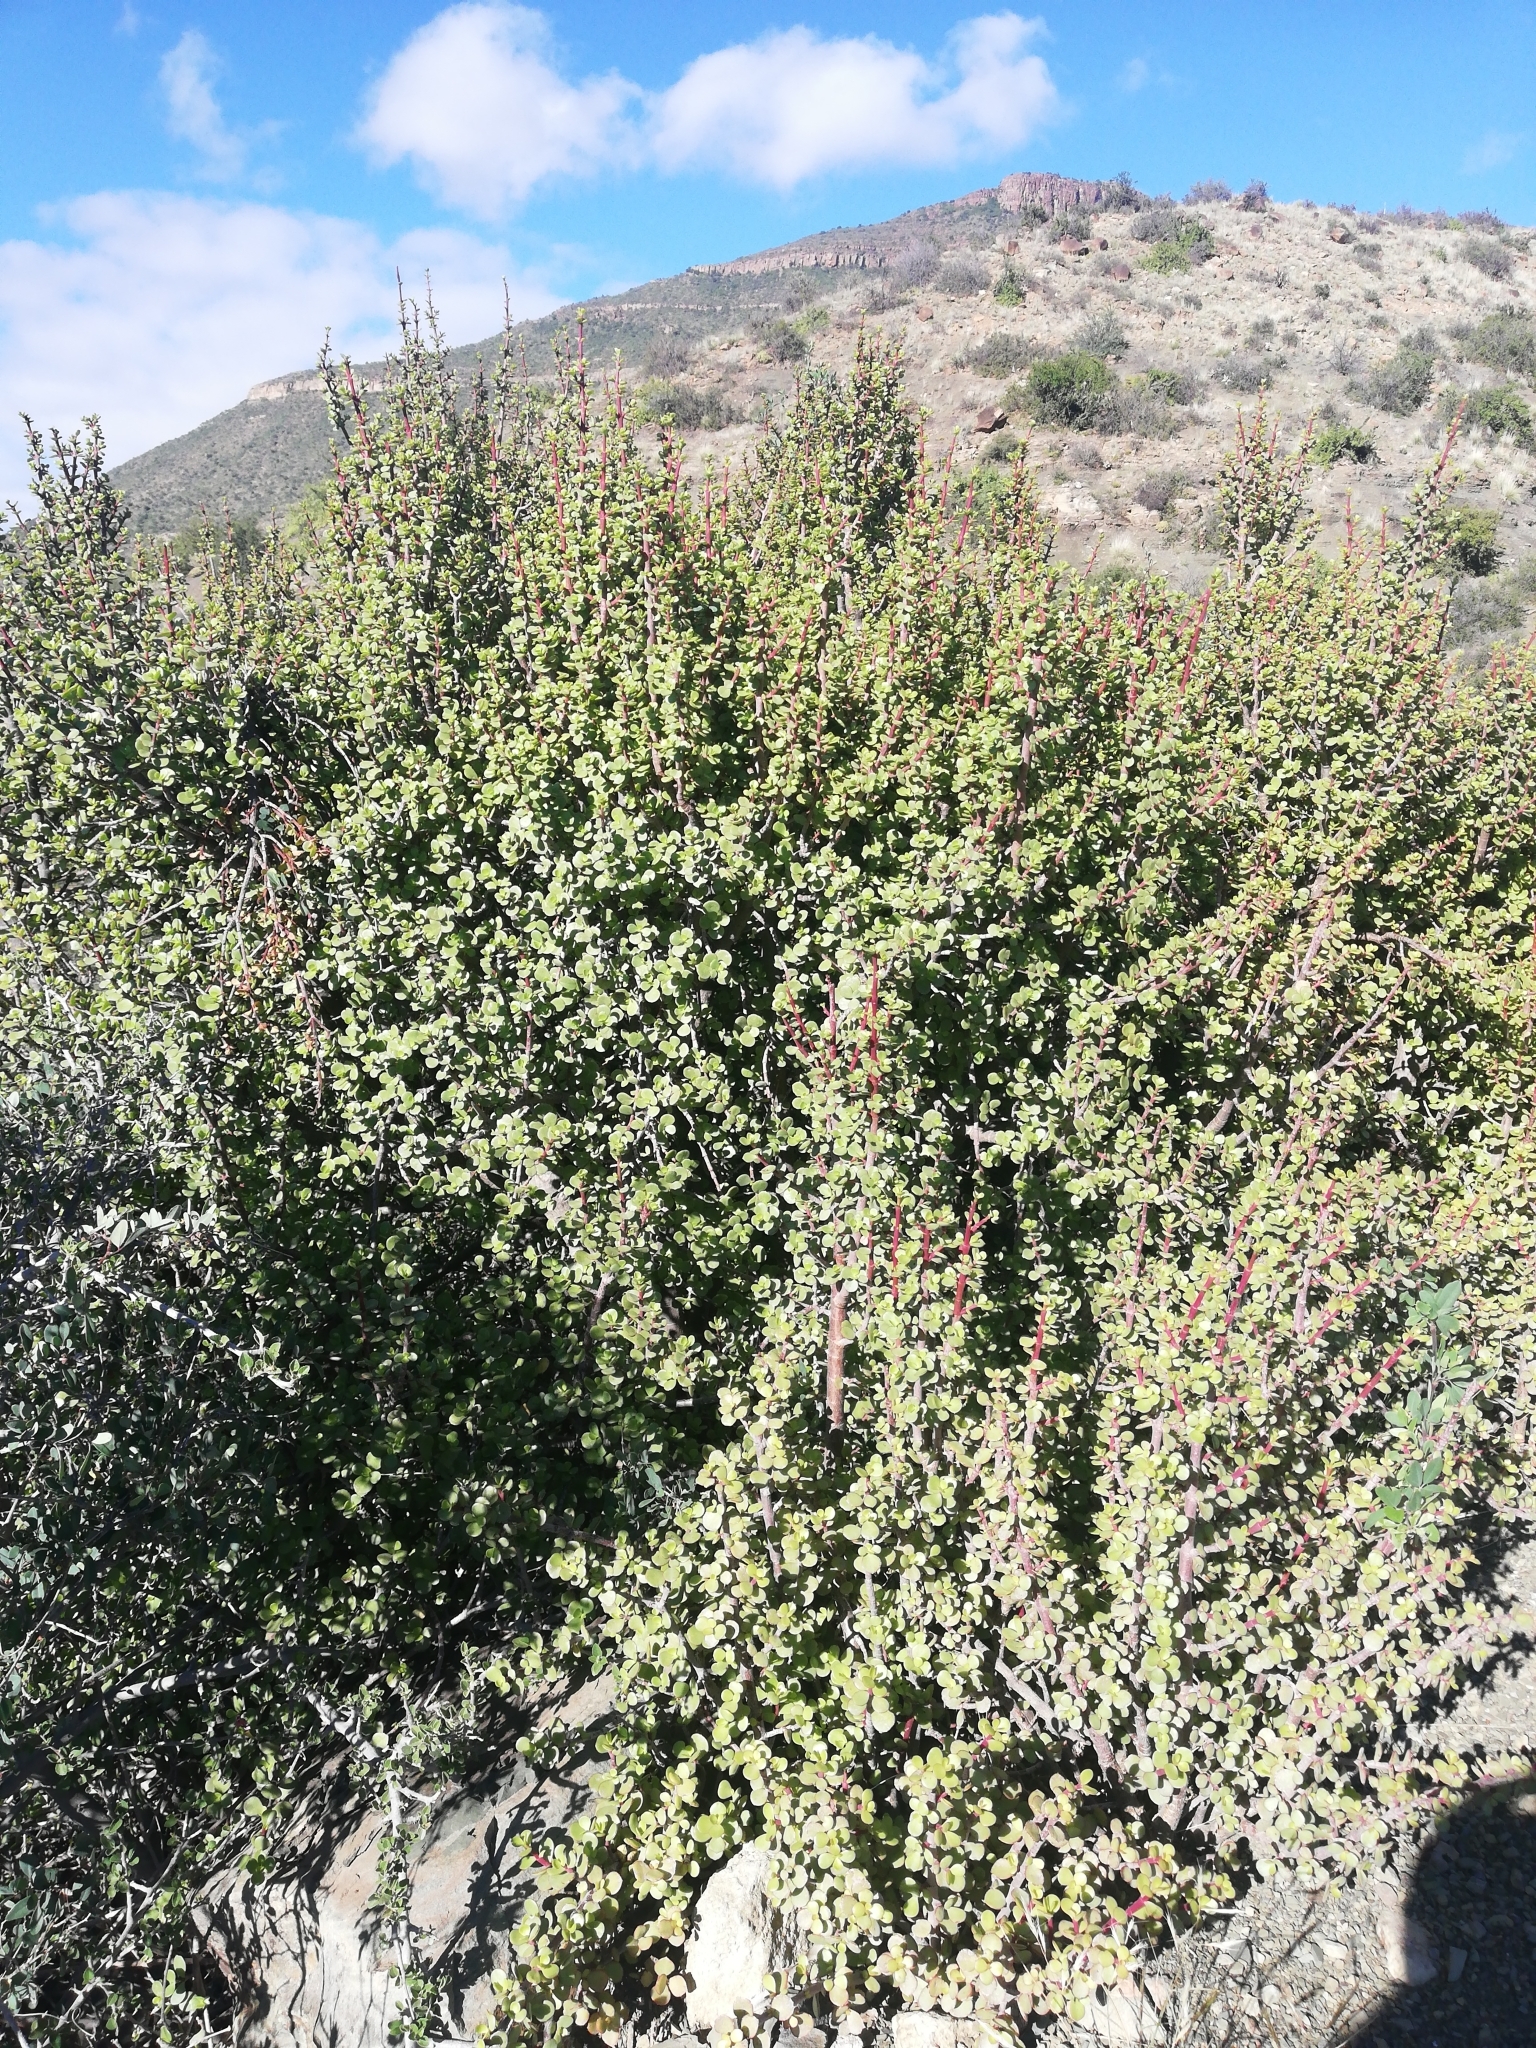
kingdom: Plantae
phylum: Tracheophyta
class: Magnoliopsida
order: Caryophyllales
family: Didiereaceae
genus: Portulacaria
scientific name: Portulacaria afra
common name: Elephant-bush
